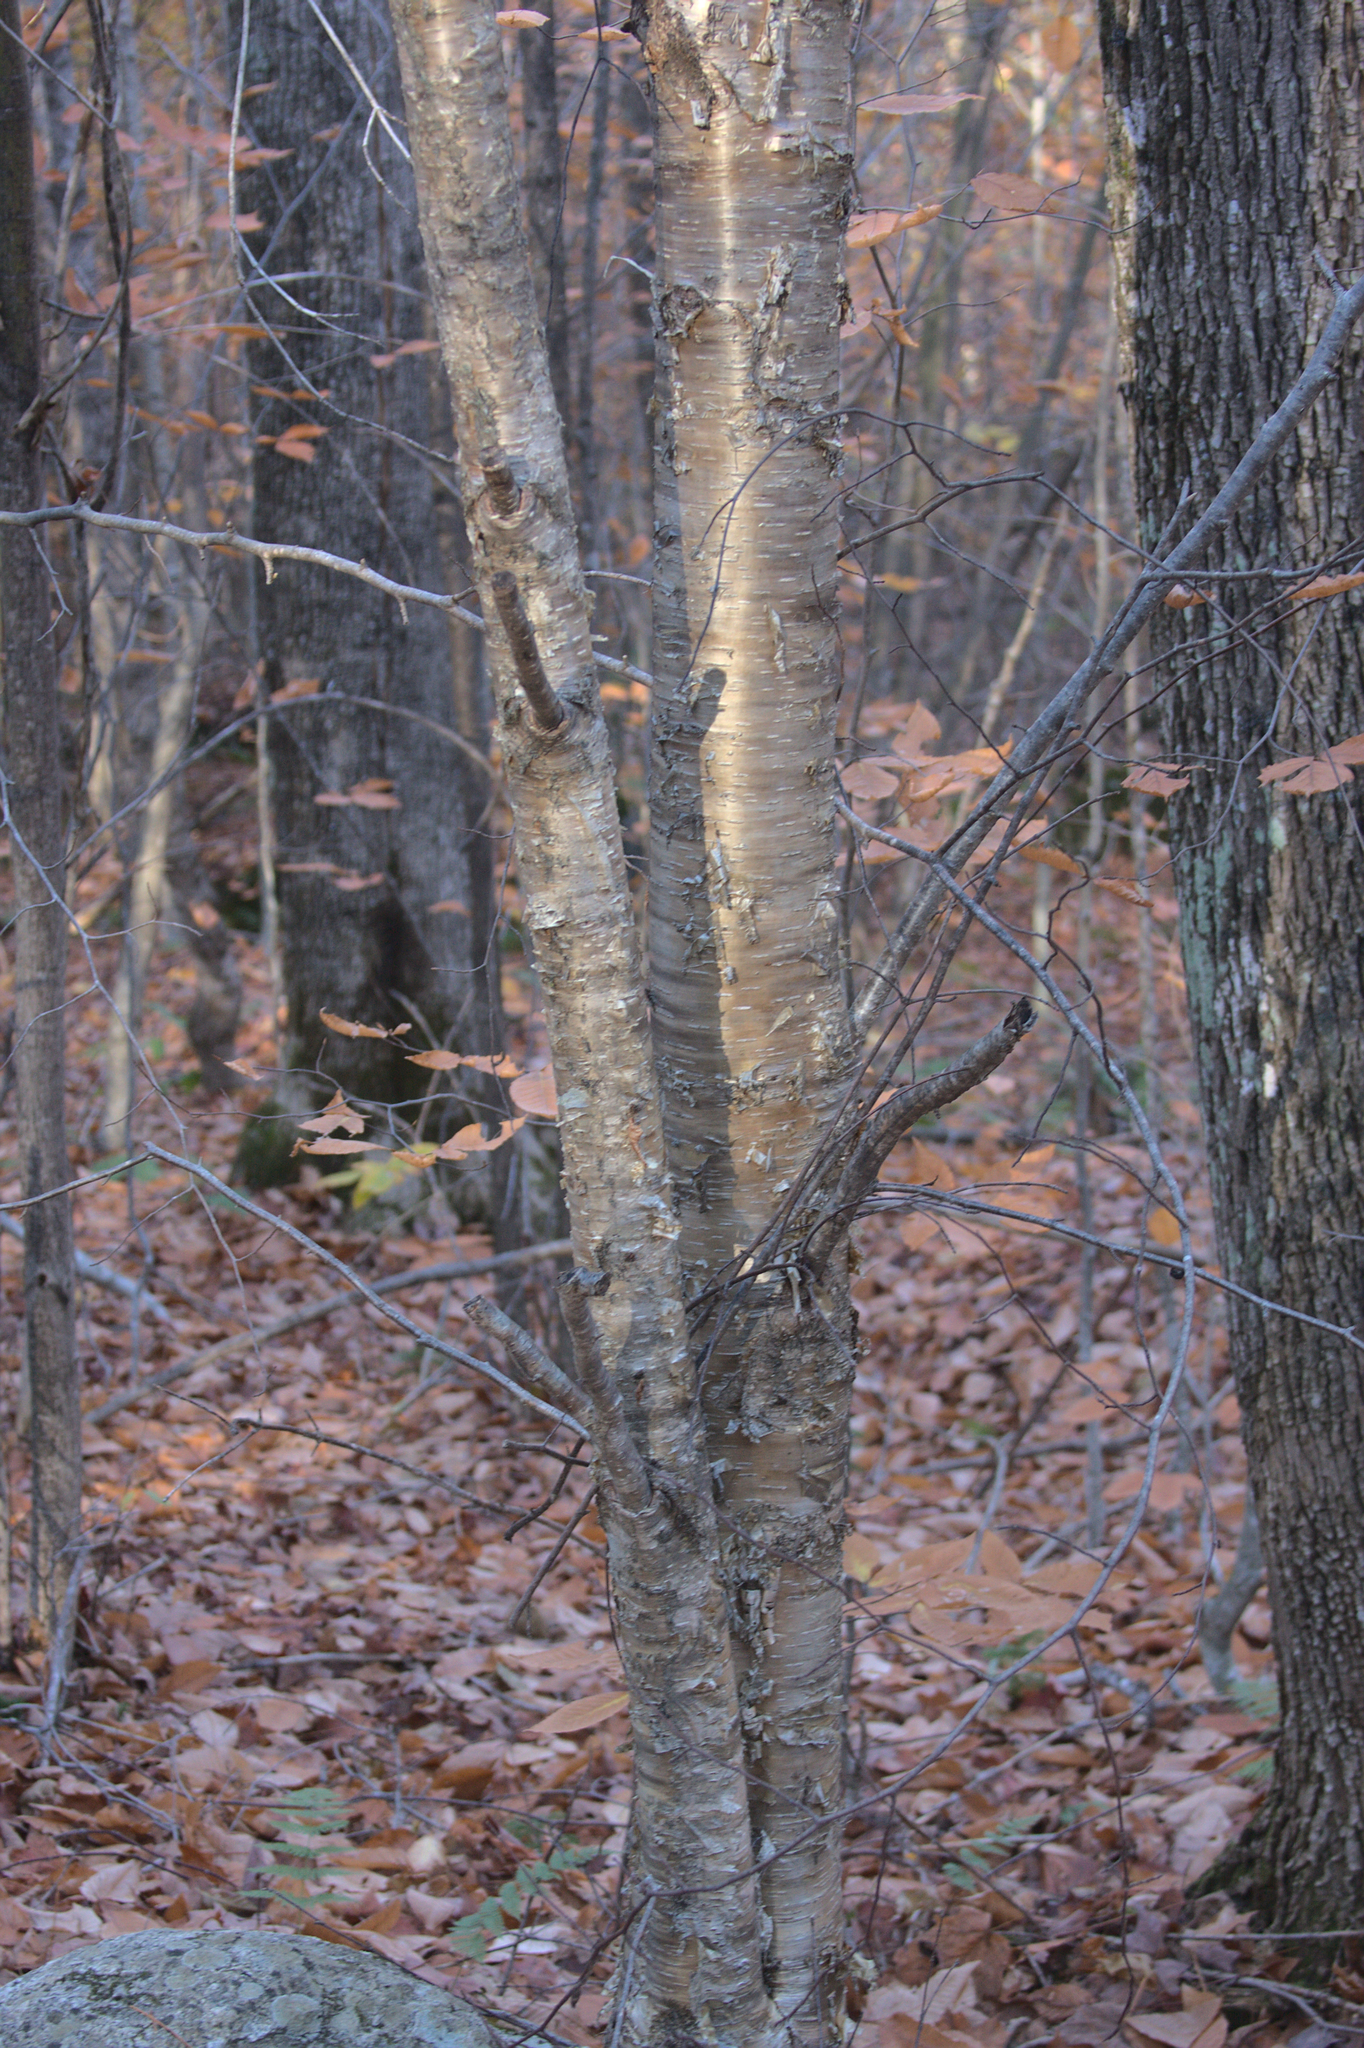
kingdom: Plantae
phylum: Tracheophyta
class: Magnoliopsida
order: Fagales
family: Betulaceae
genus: Betula
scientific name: Betula alleghaniensis
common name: Yellow birch
